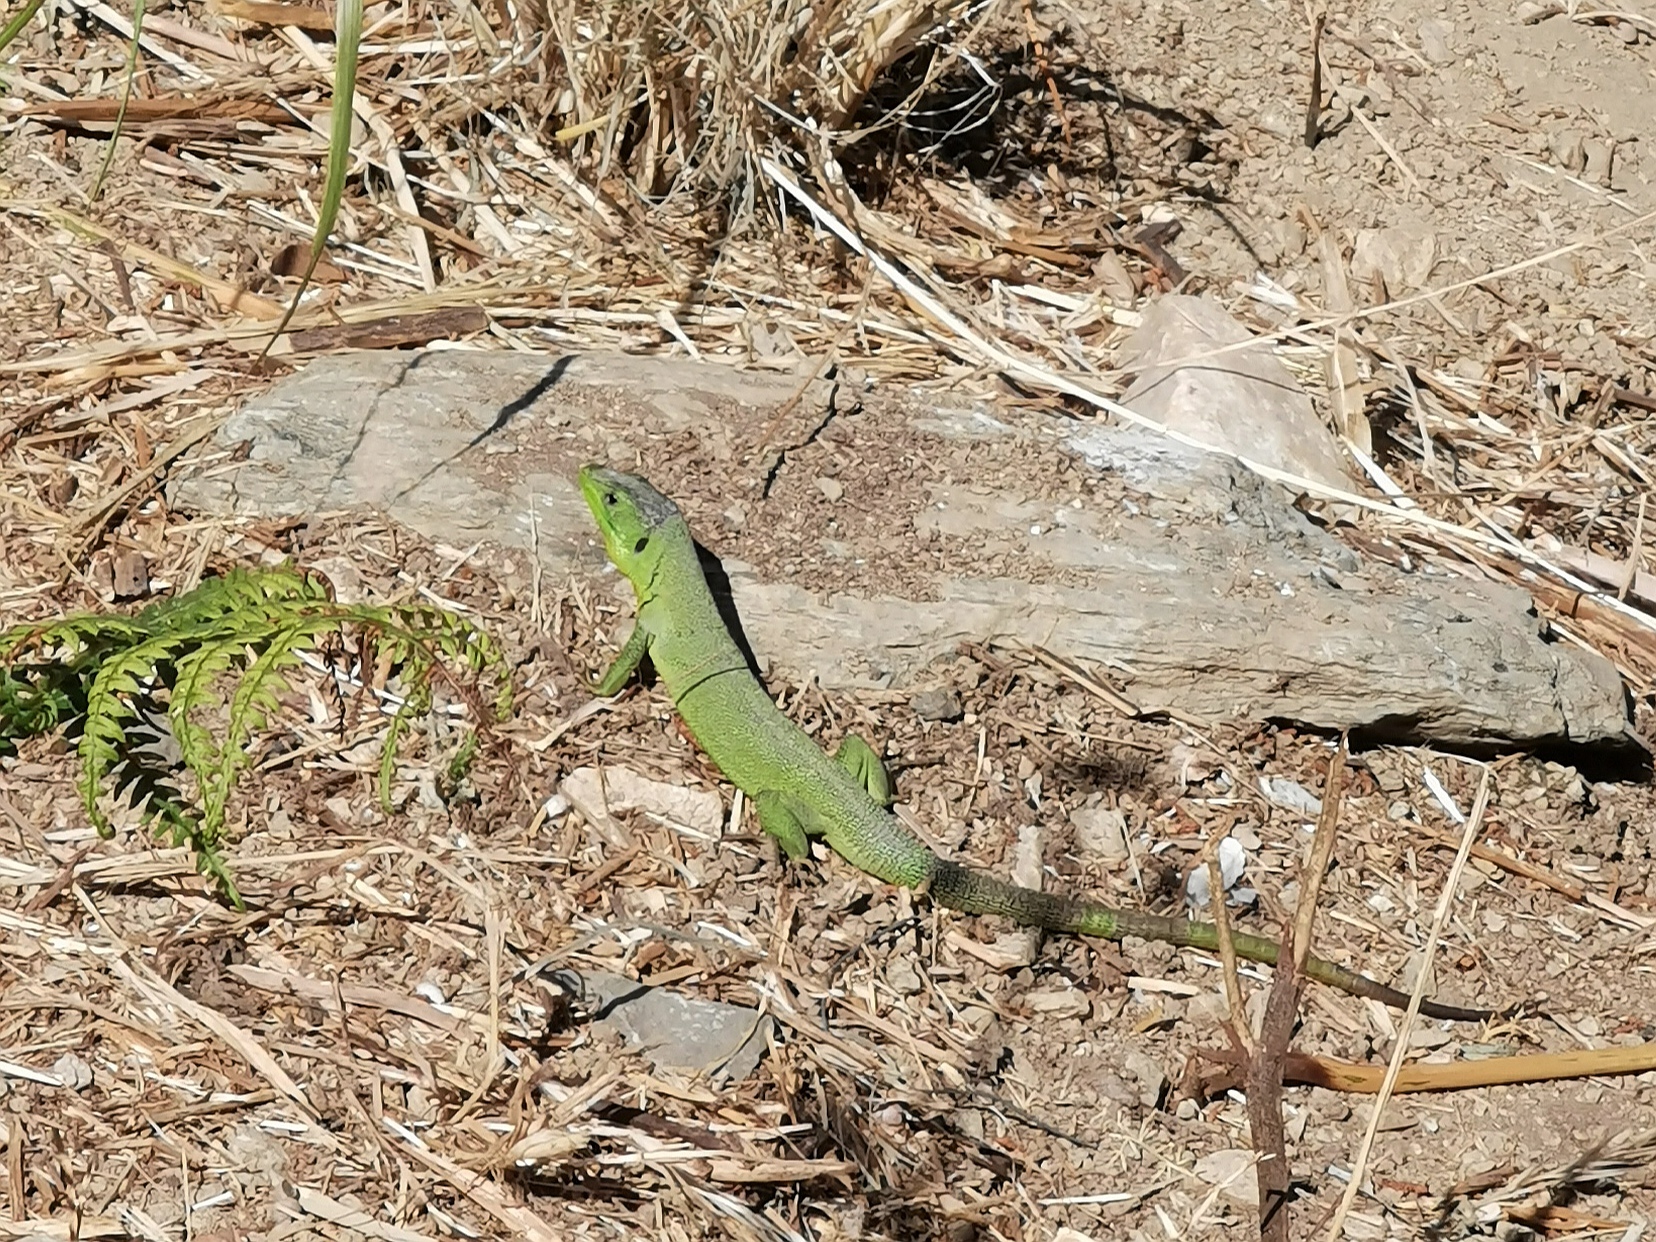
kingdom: Animalia
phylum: Chordata
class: Squamata
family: Lacertidae
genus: Lacerta
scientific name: Lacerta trilineata
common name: Balkan green lizard
